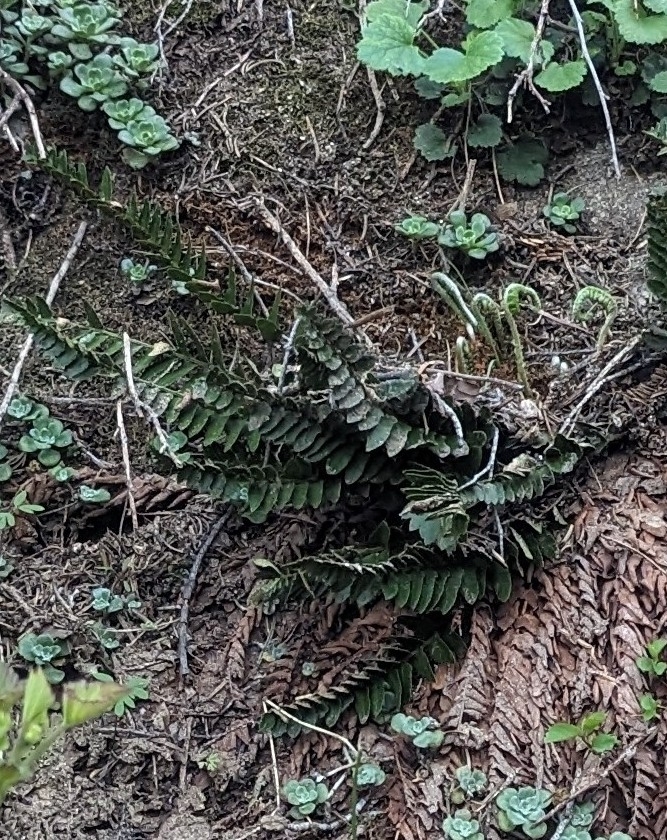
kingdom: Plantae
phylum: Tracheophyta
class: Polypodiopsida
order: Polypodiales
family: Dryopteridaceae
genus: Polystichum
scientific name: Polystichum scopulinum
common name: Eaton's shield fern
